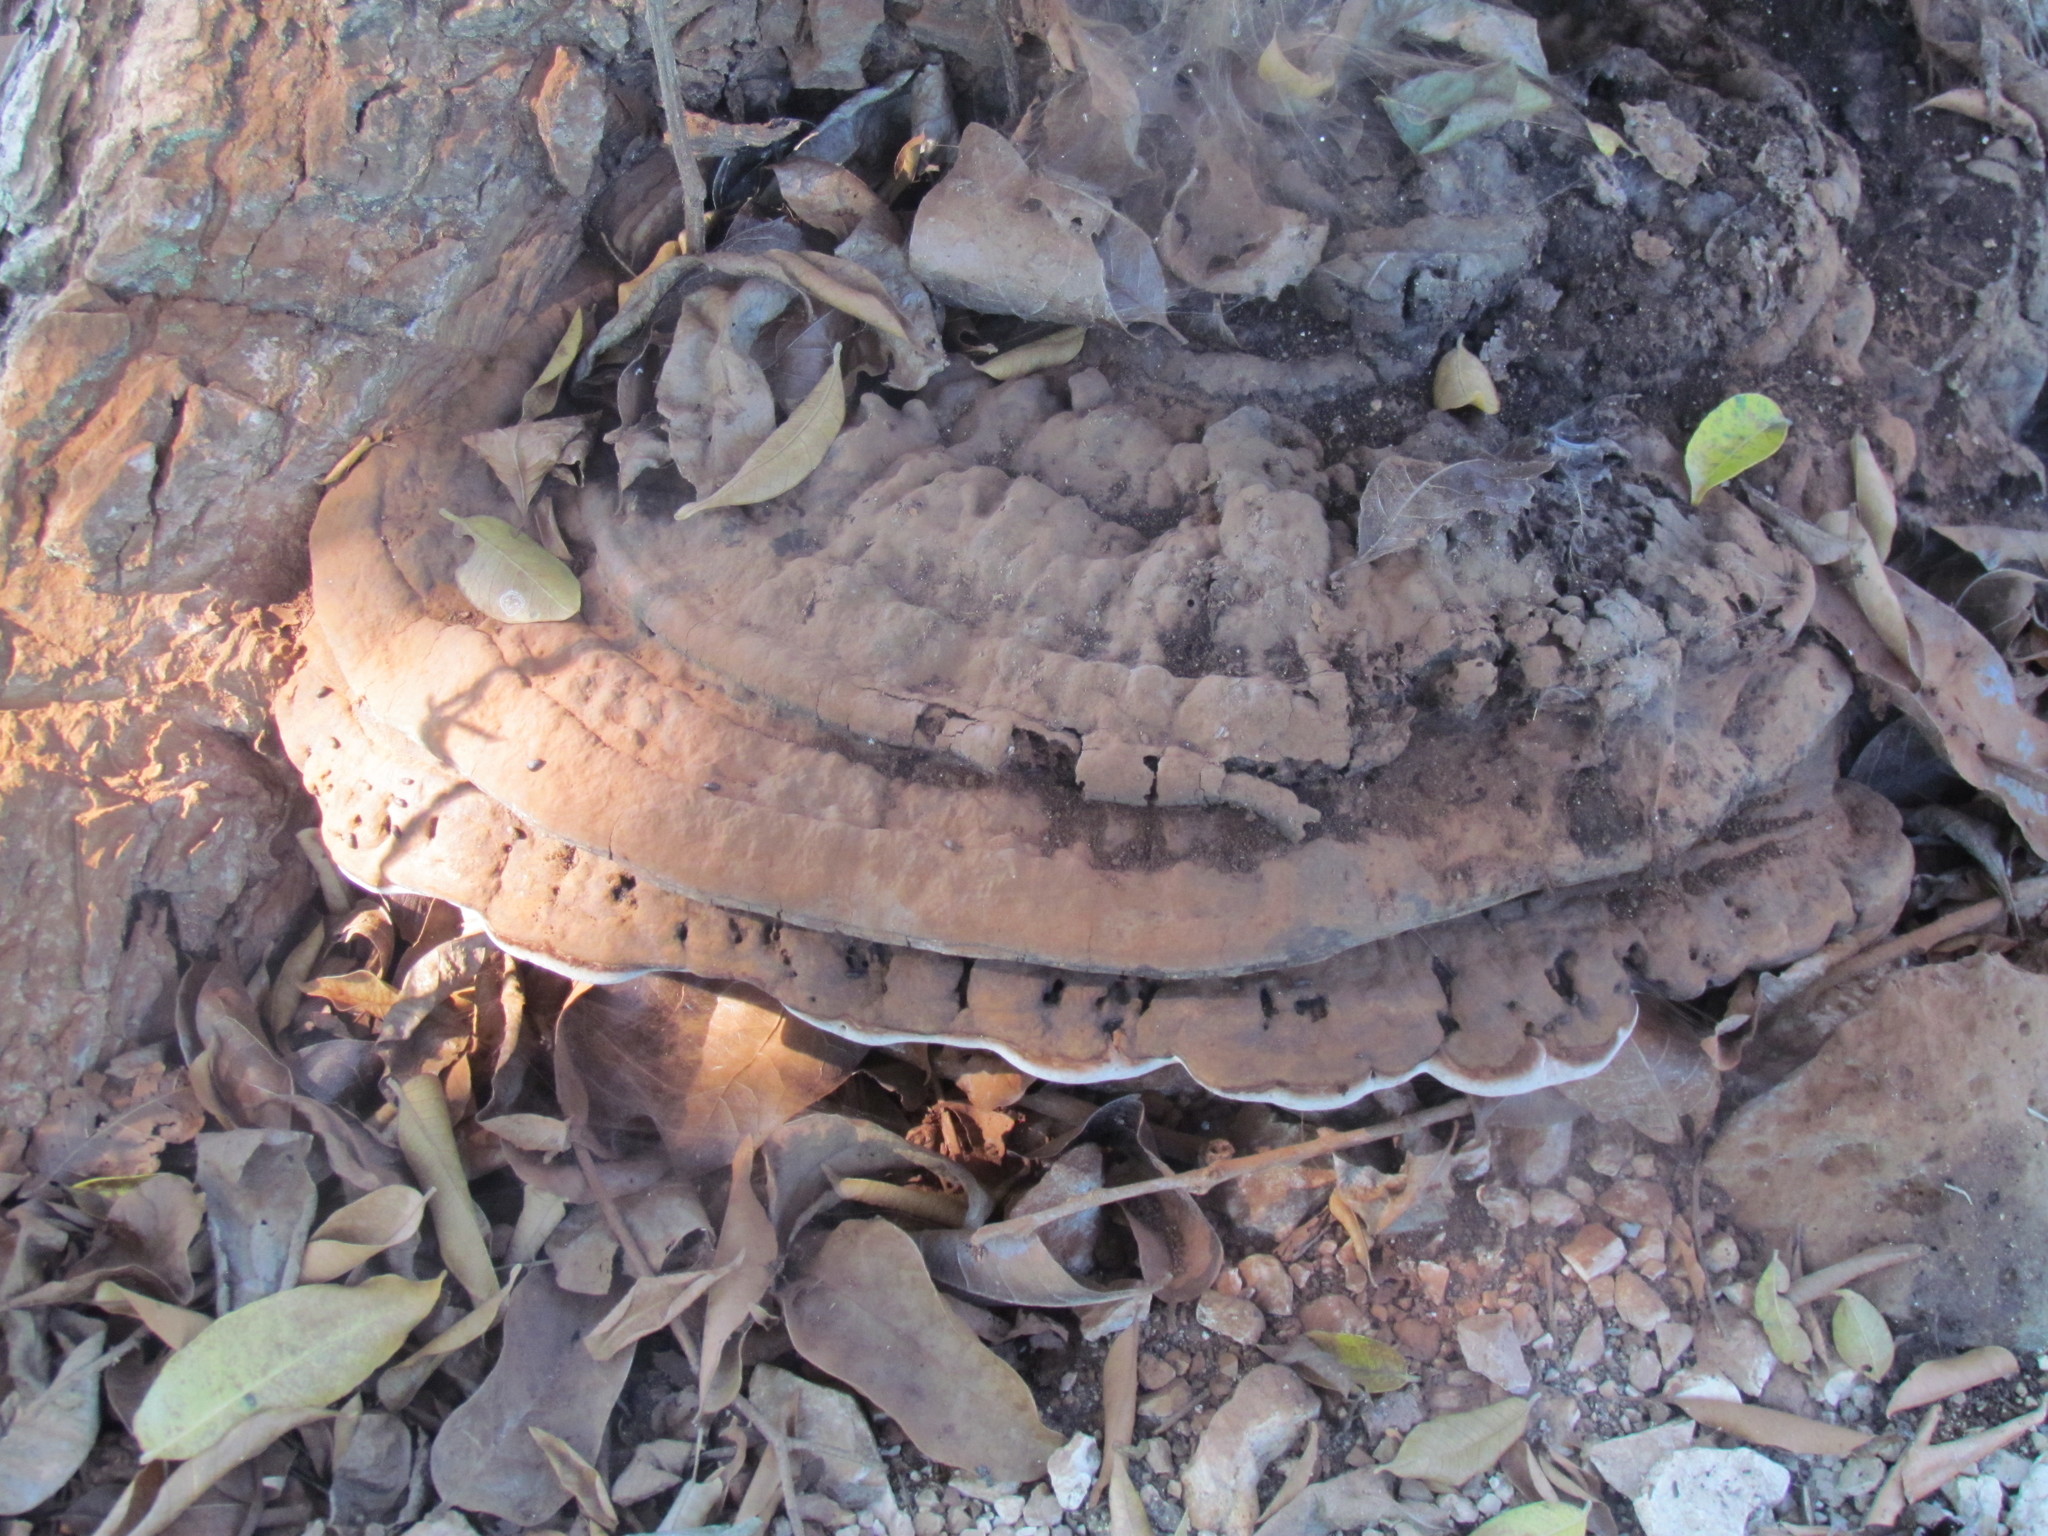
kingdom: Fungi
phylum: Basidiomycota
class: Agaricomycetes
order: Polyporales
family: Polyporaceae
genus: Ganoderma
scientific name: Ganoderma applanatum
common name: Artist's bracket
